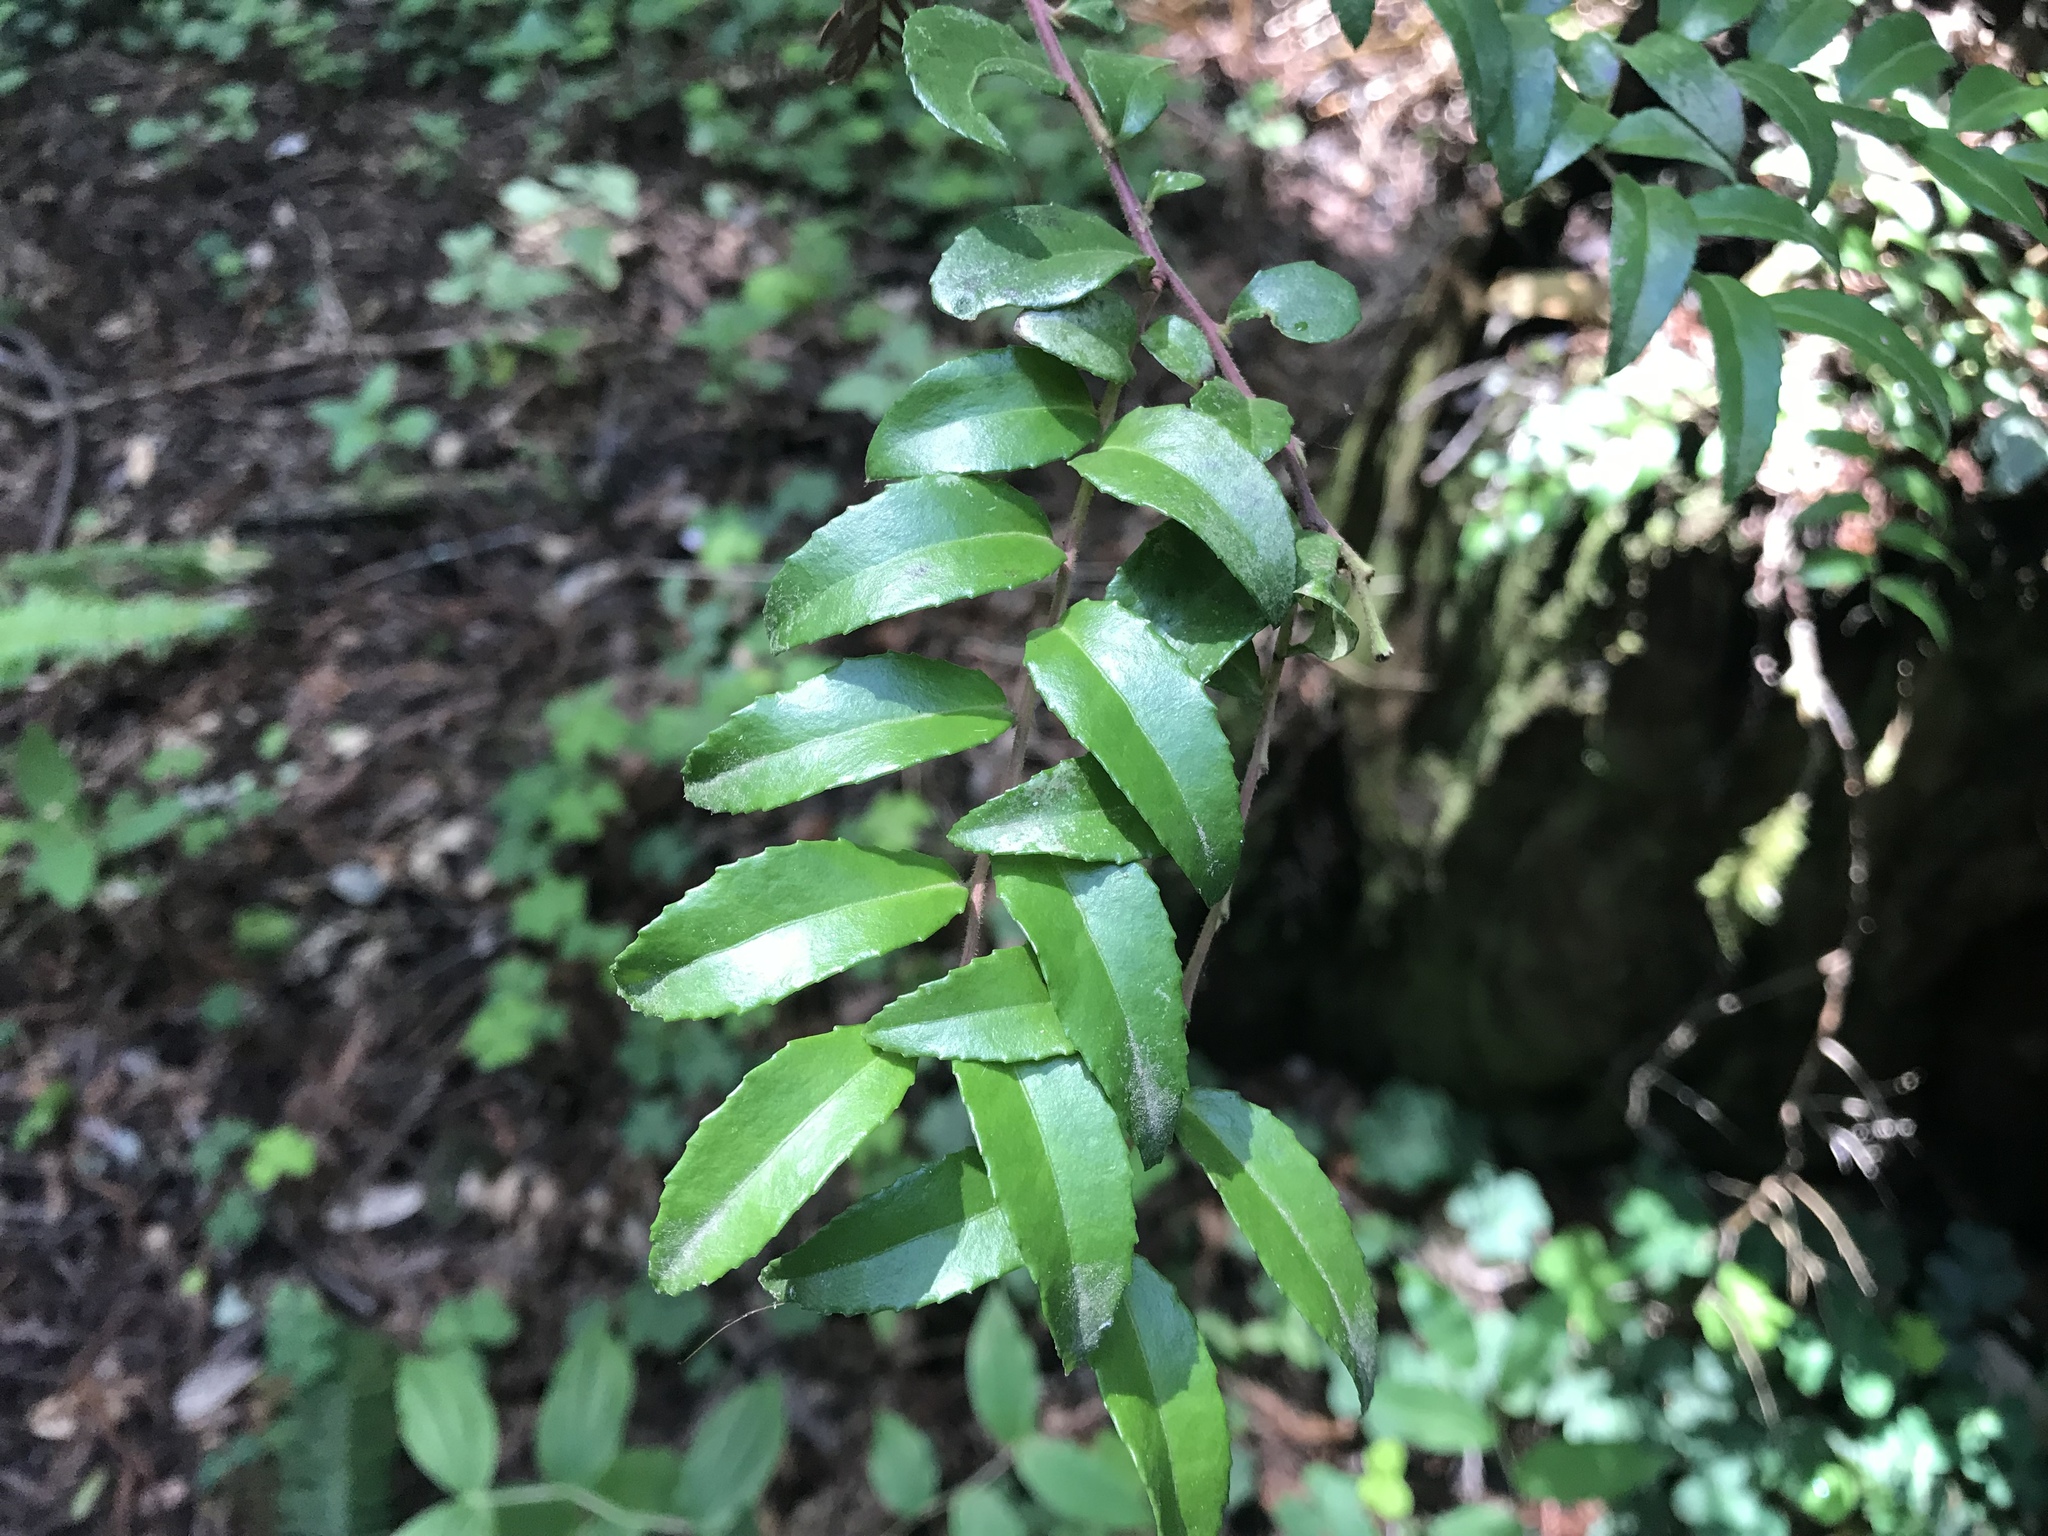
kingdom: Plantae
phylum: Tracheophyta
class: Magnoliopsida
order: Ericales
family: Ericaceae
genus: Vaccinium
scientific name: Vaccinium ovatum
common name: California-huckleberry
